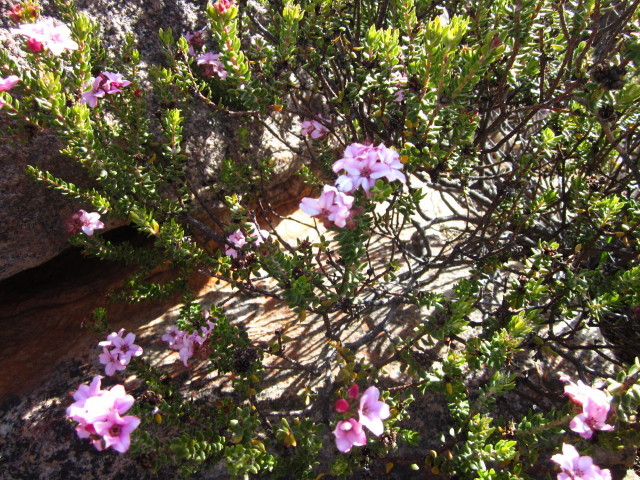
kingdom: Plantae
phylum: Tracheophyta
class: Magnoliopsida
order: Sapindales
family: Rutaceae
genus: Adenandra
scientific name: Adenandra dahlgrenii
